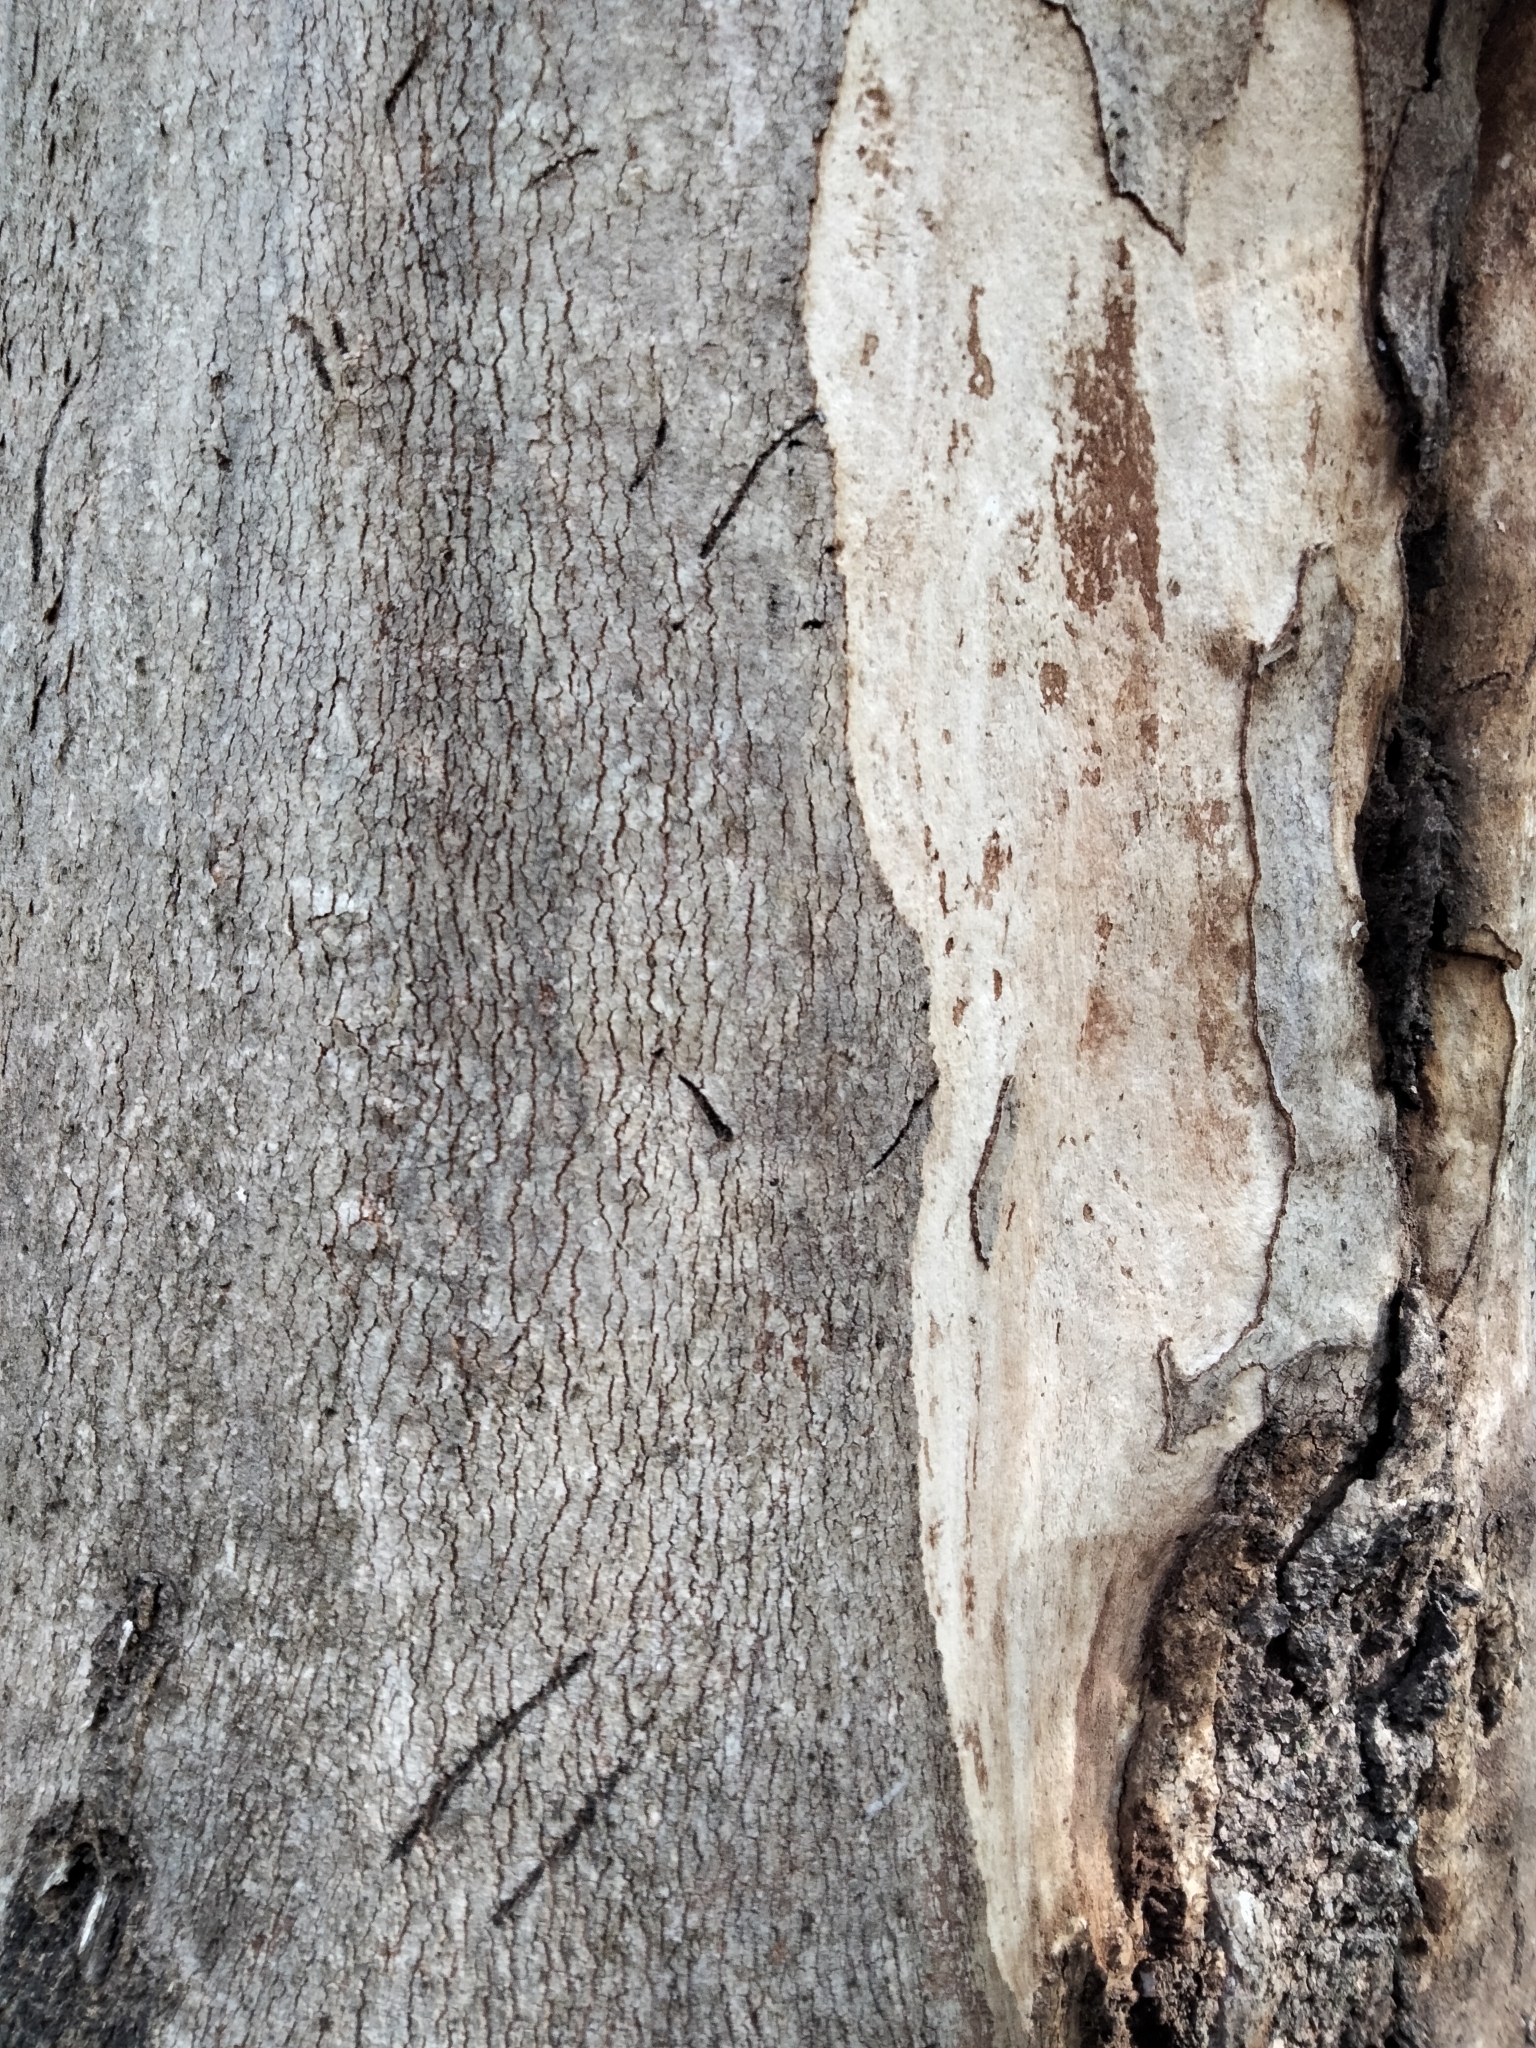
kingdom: Animalia
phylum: Chordata
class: Mammalia
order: Diprotodontia
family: Phascolarctidae
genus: Phascolarctos
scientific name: Phascolarctos cinereus
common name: Koala
